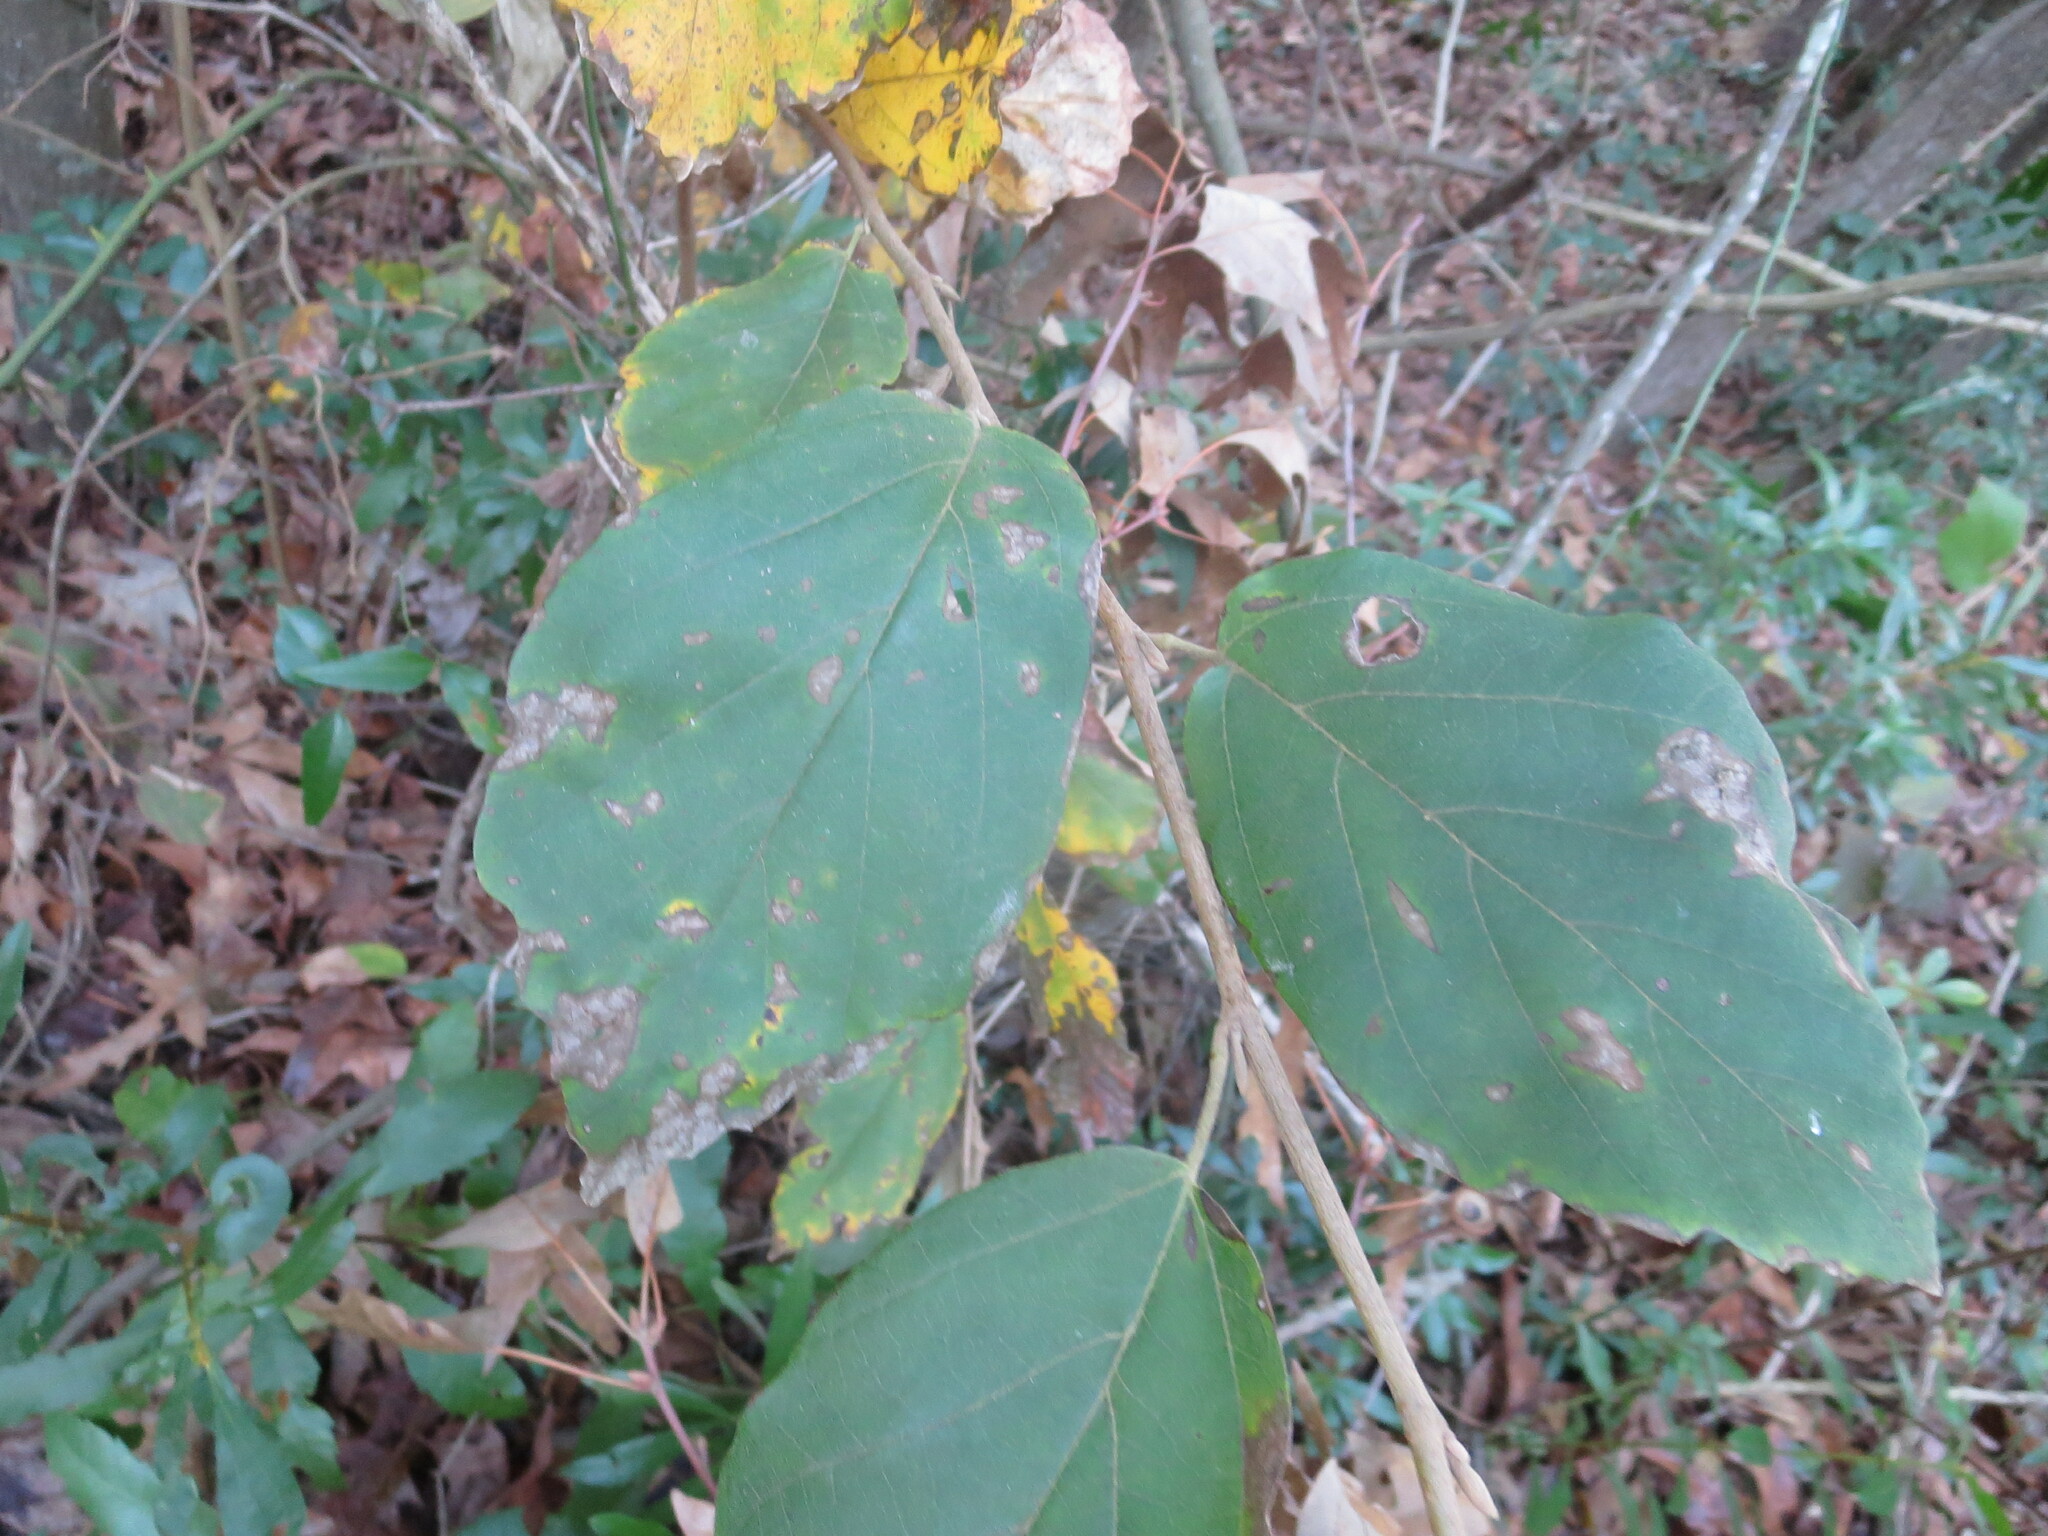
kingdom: Plantae
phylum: Tracheophyta
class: Magnoliopsida
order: Saxifragales
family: Hamamelidaceae
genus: Hamamelis
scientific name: Hamamelis virginiana
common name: Witch-hazel
